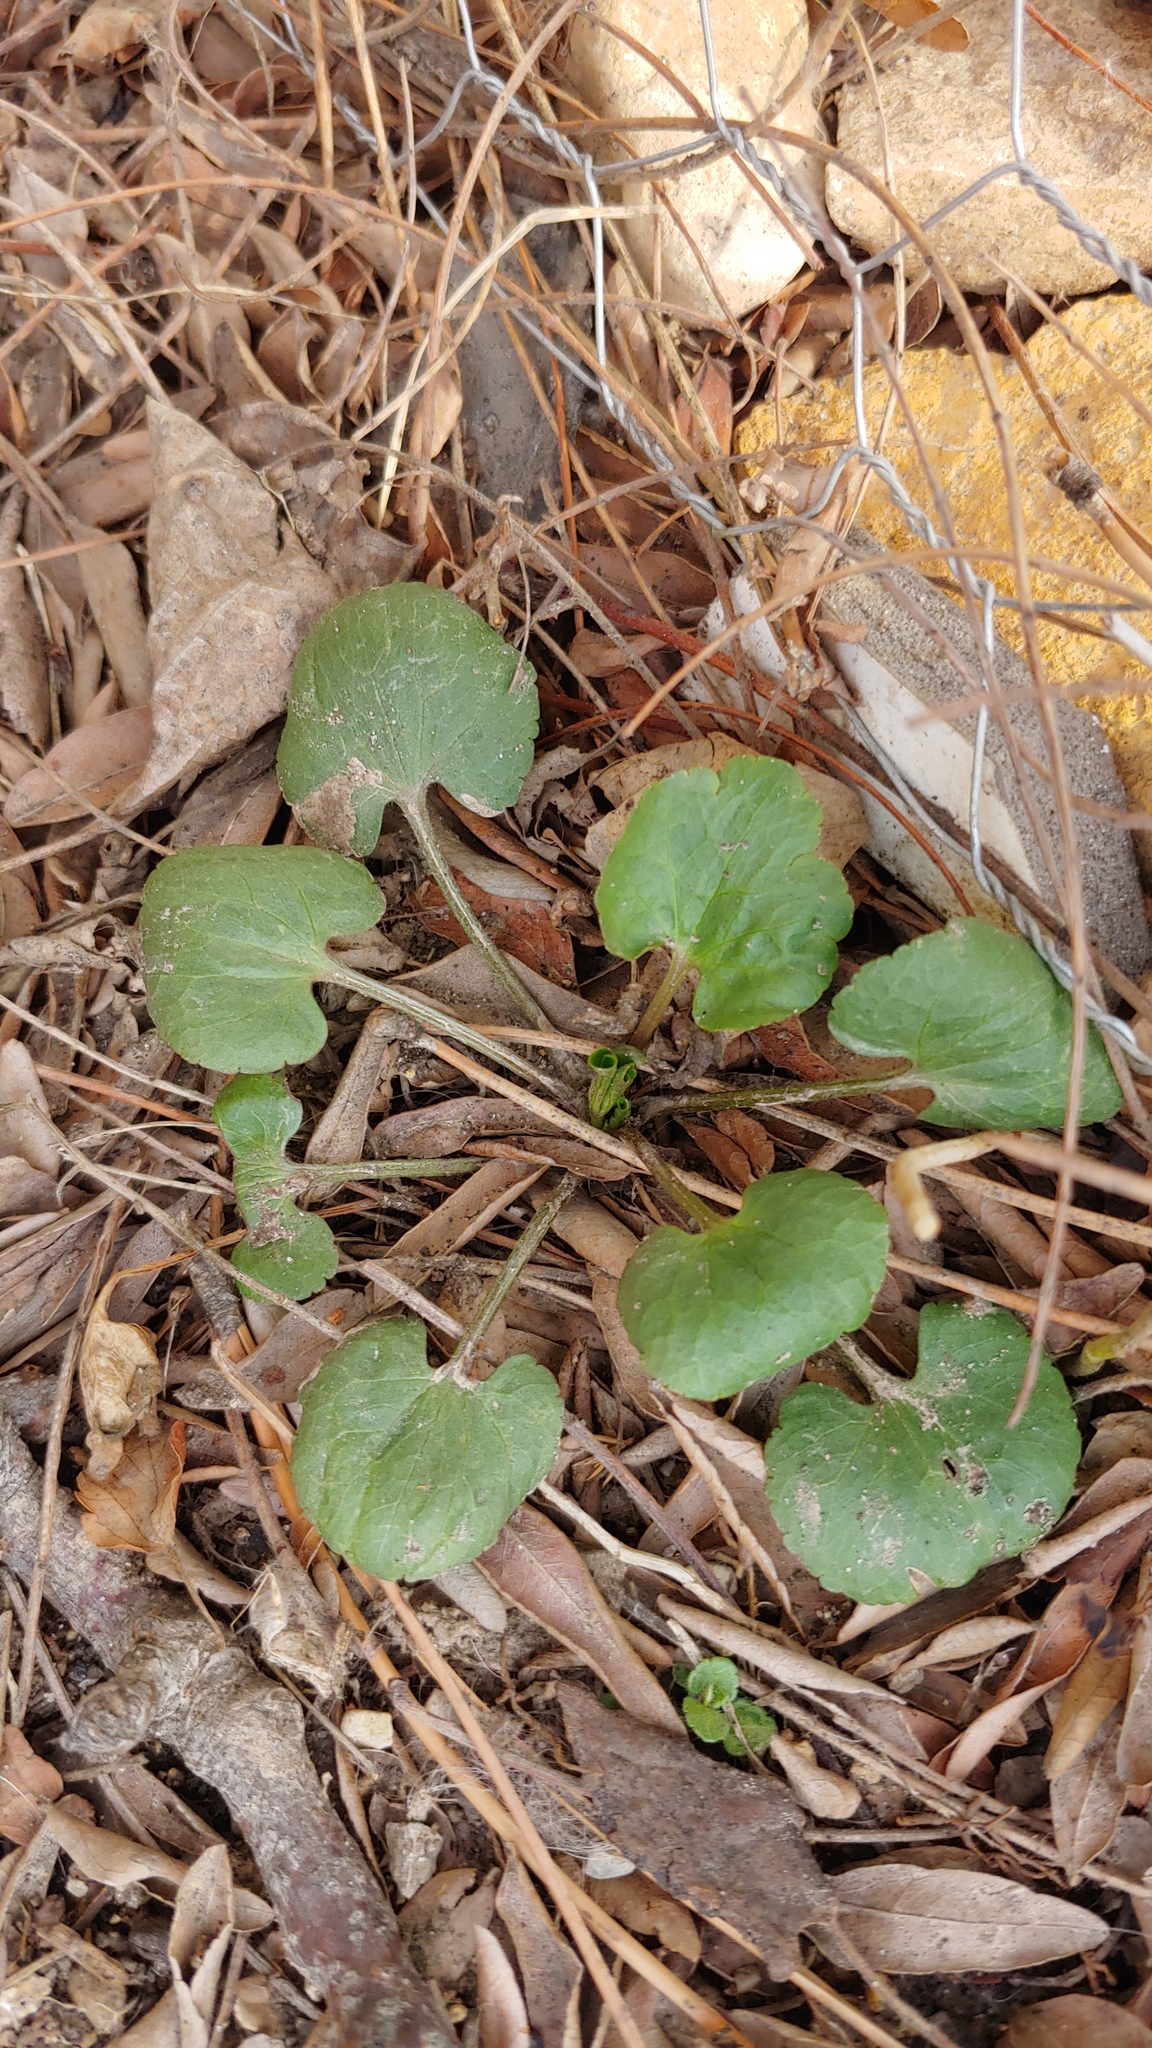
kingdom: Plantae
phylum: Tracheophyta
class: Magnoliopsida
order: Ranunculales
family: Ranunculaceae
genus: Ranunculus
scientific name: Ranunculus abortivus
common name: Early wood buttercup
